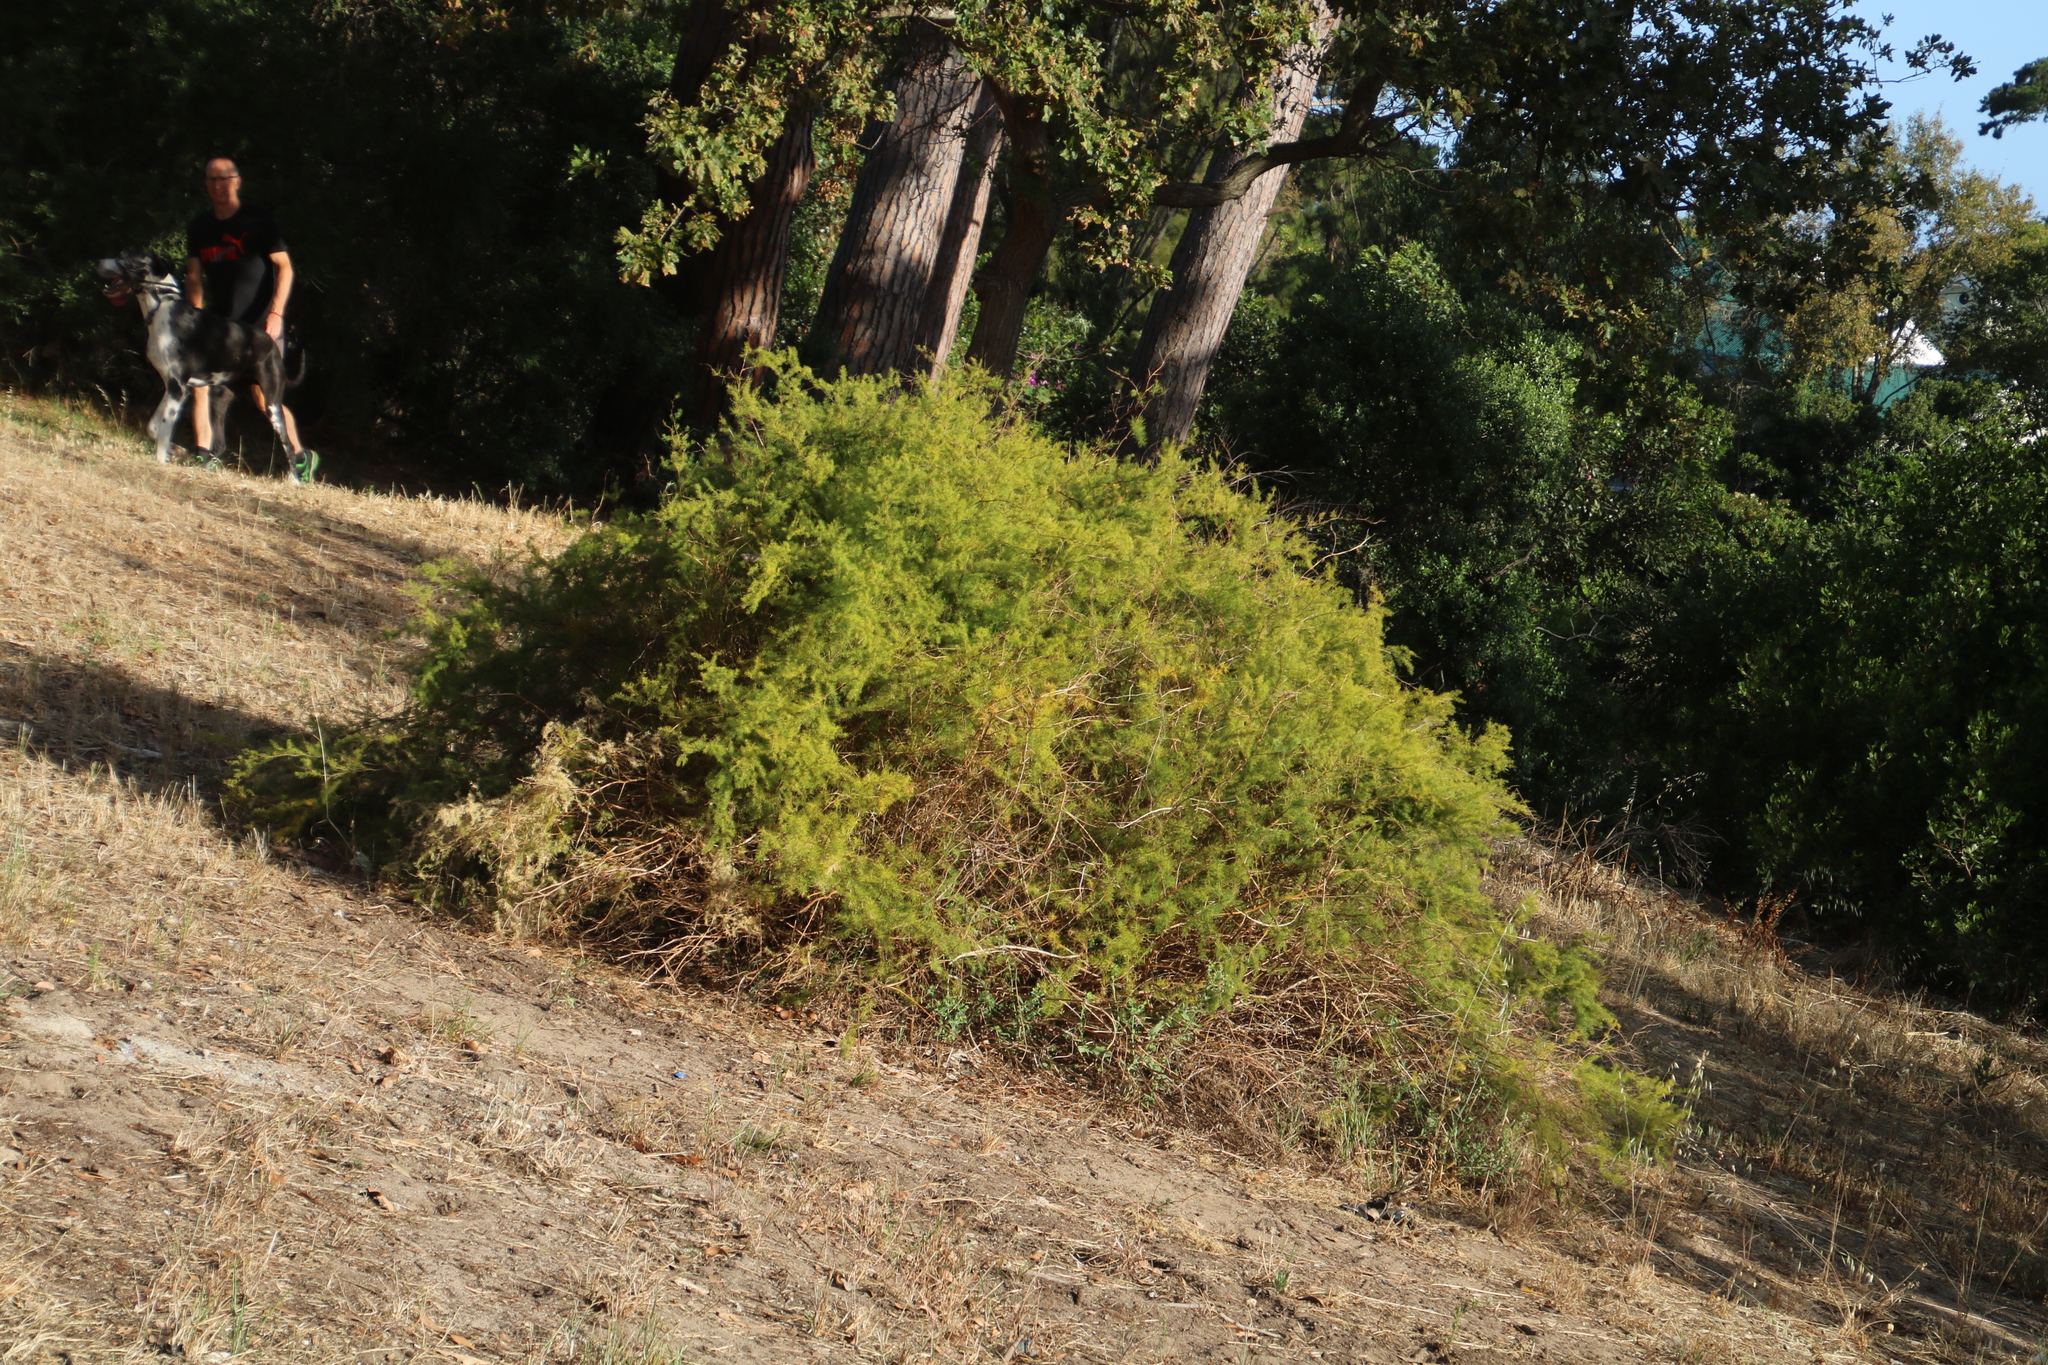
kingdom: Plantae
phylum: Tracheophyta
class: Liliopsida
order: Asparagales
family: Asparagaceae
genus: Asparagus
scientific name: Asparagus rubicundus
